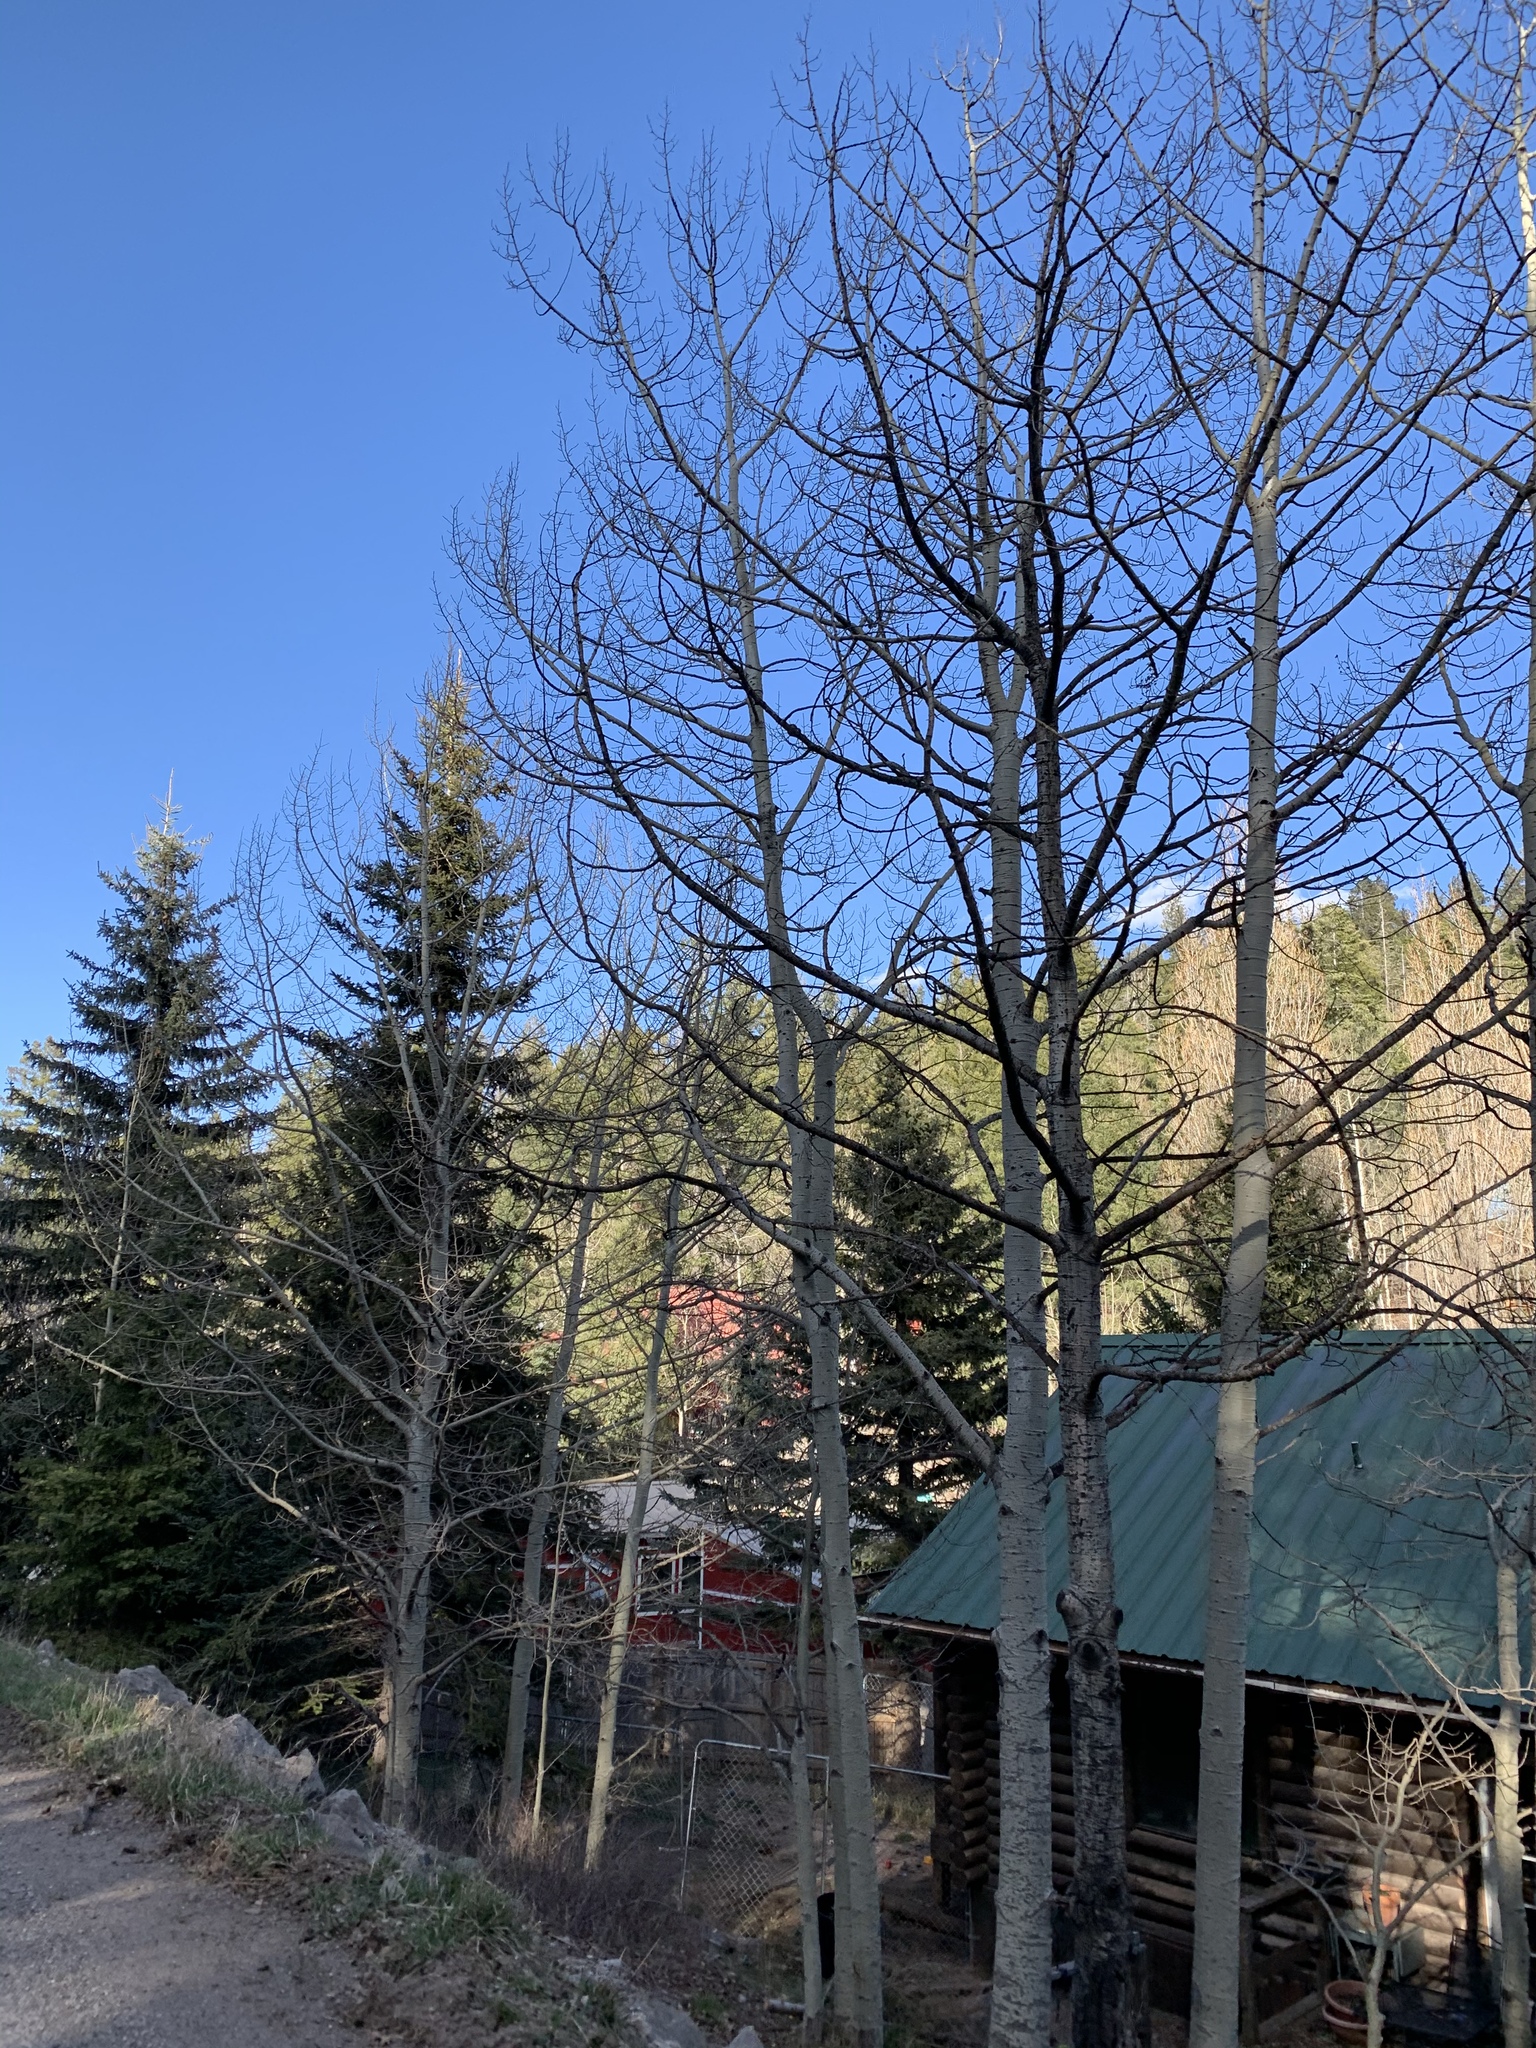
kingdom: Plantae
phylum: Tracheophyta
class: Magnoliopsida
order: Malpighiales
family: Salicaceae
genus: Populus
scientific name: Populus tremuloides
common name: Quaking aspen
